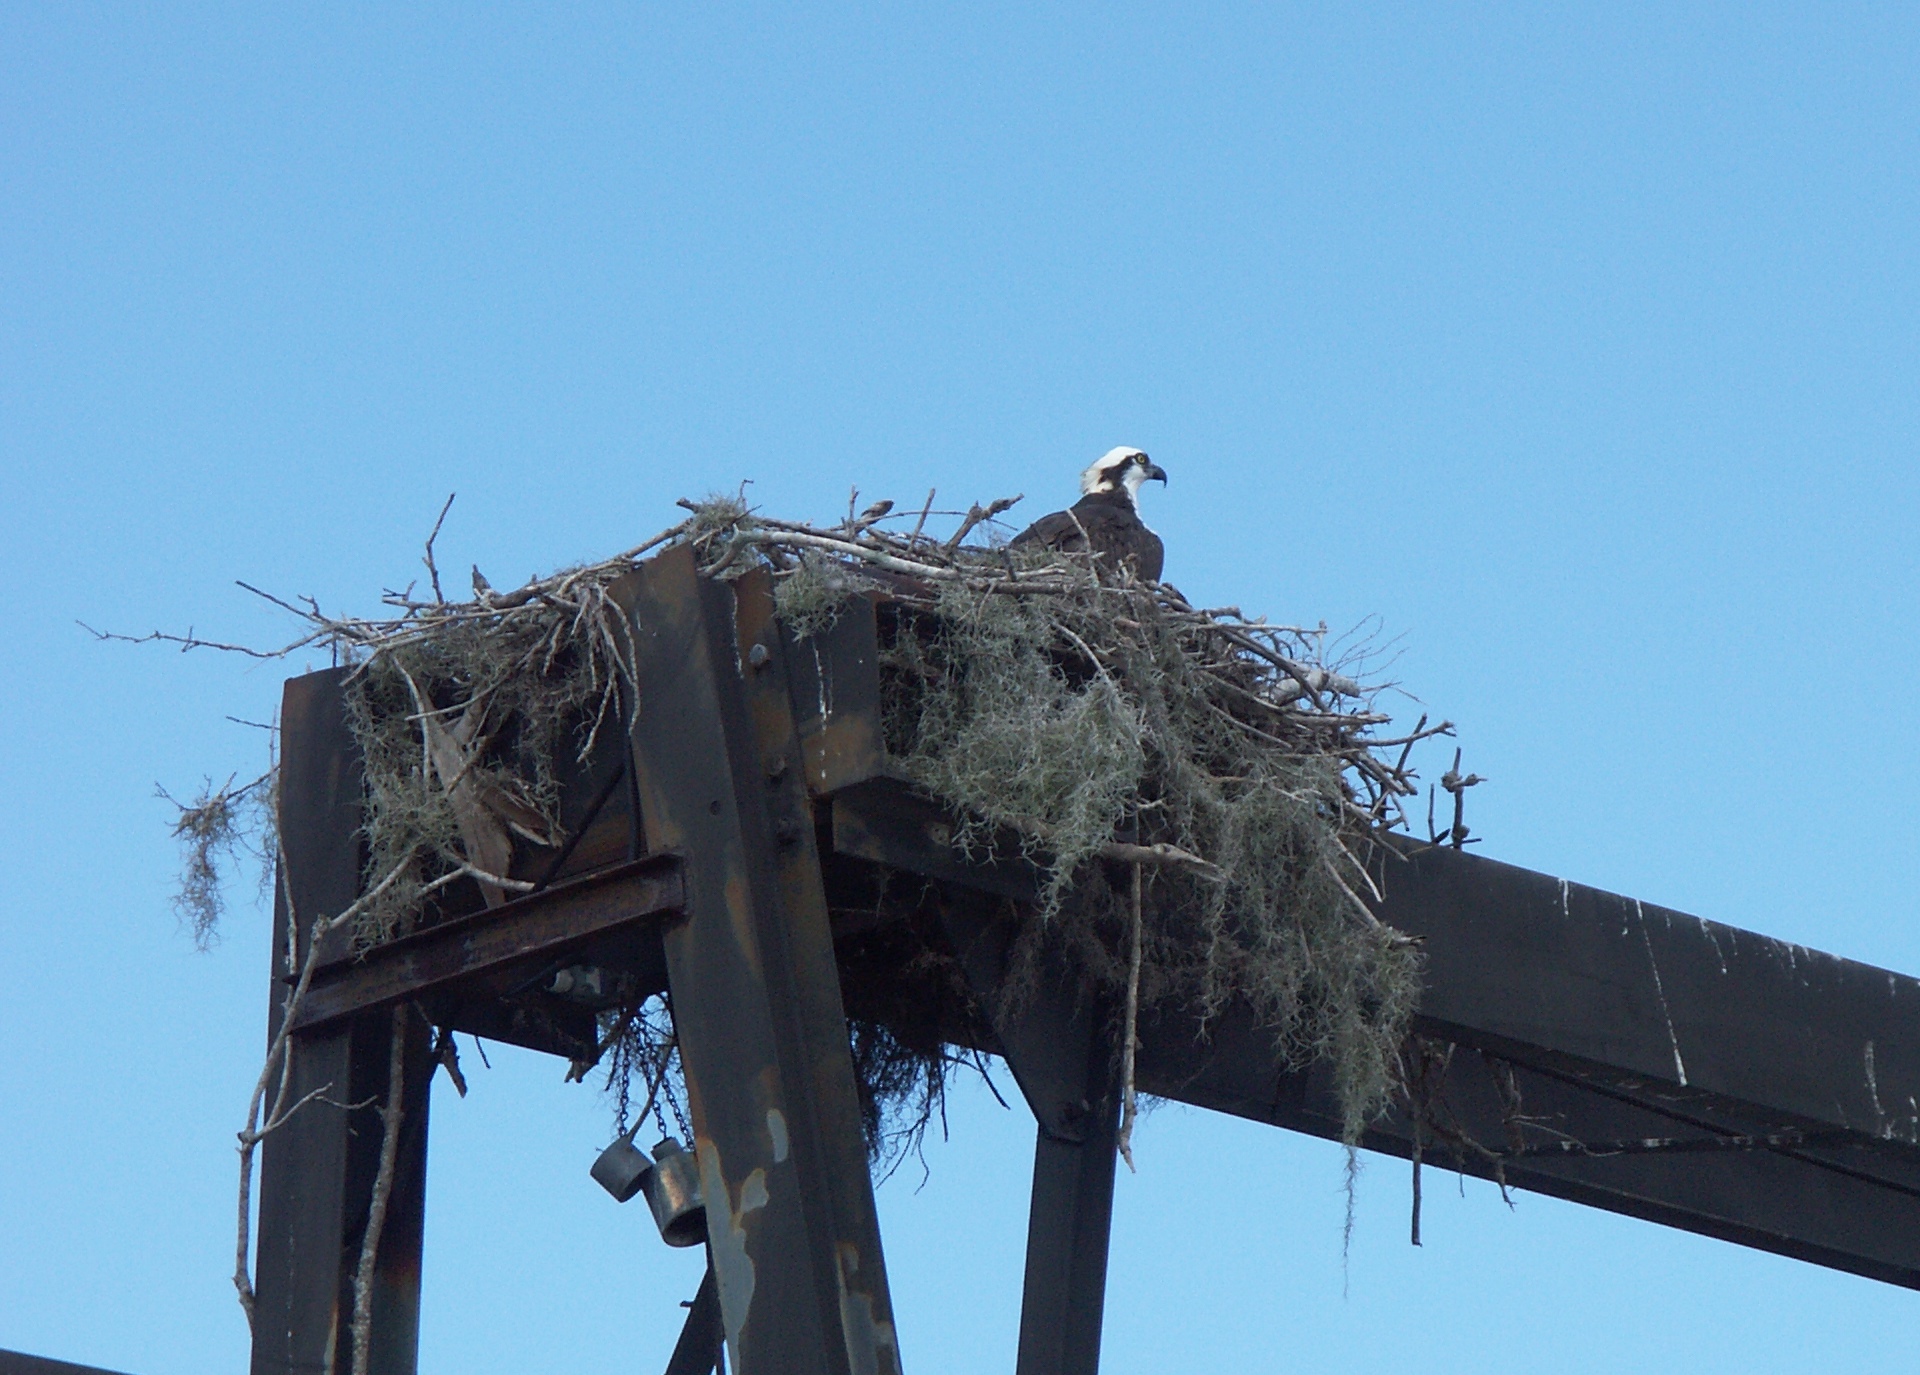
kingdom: Animalia
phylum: Chordata
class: Aves
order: Accipitriformes
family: Pandionidae
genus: Pandion
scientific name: Pandion haliaetus
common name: Osprey
